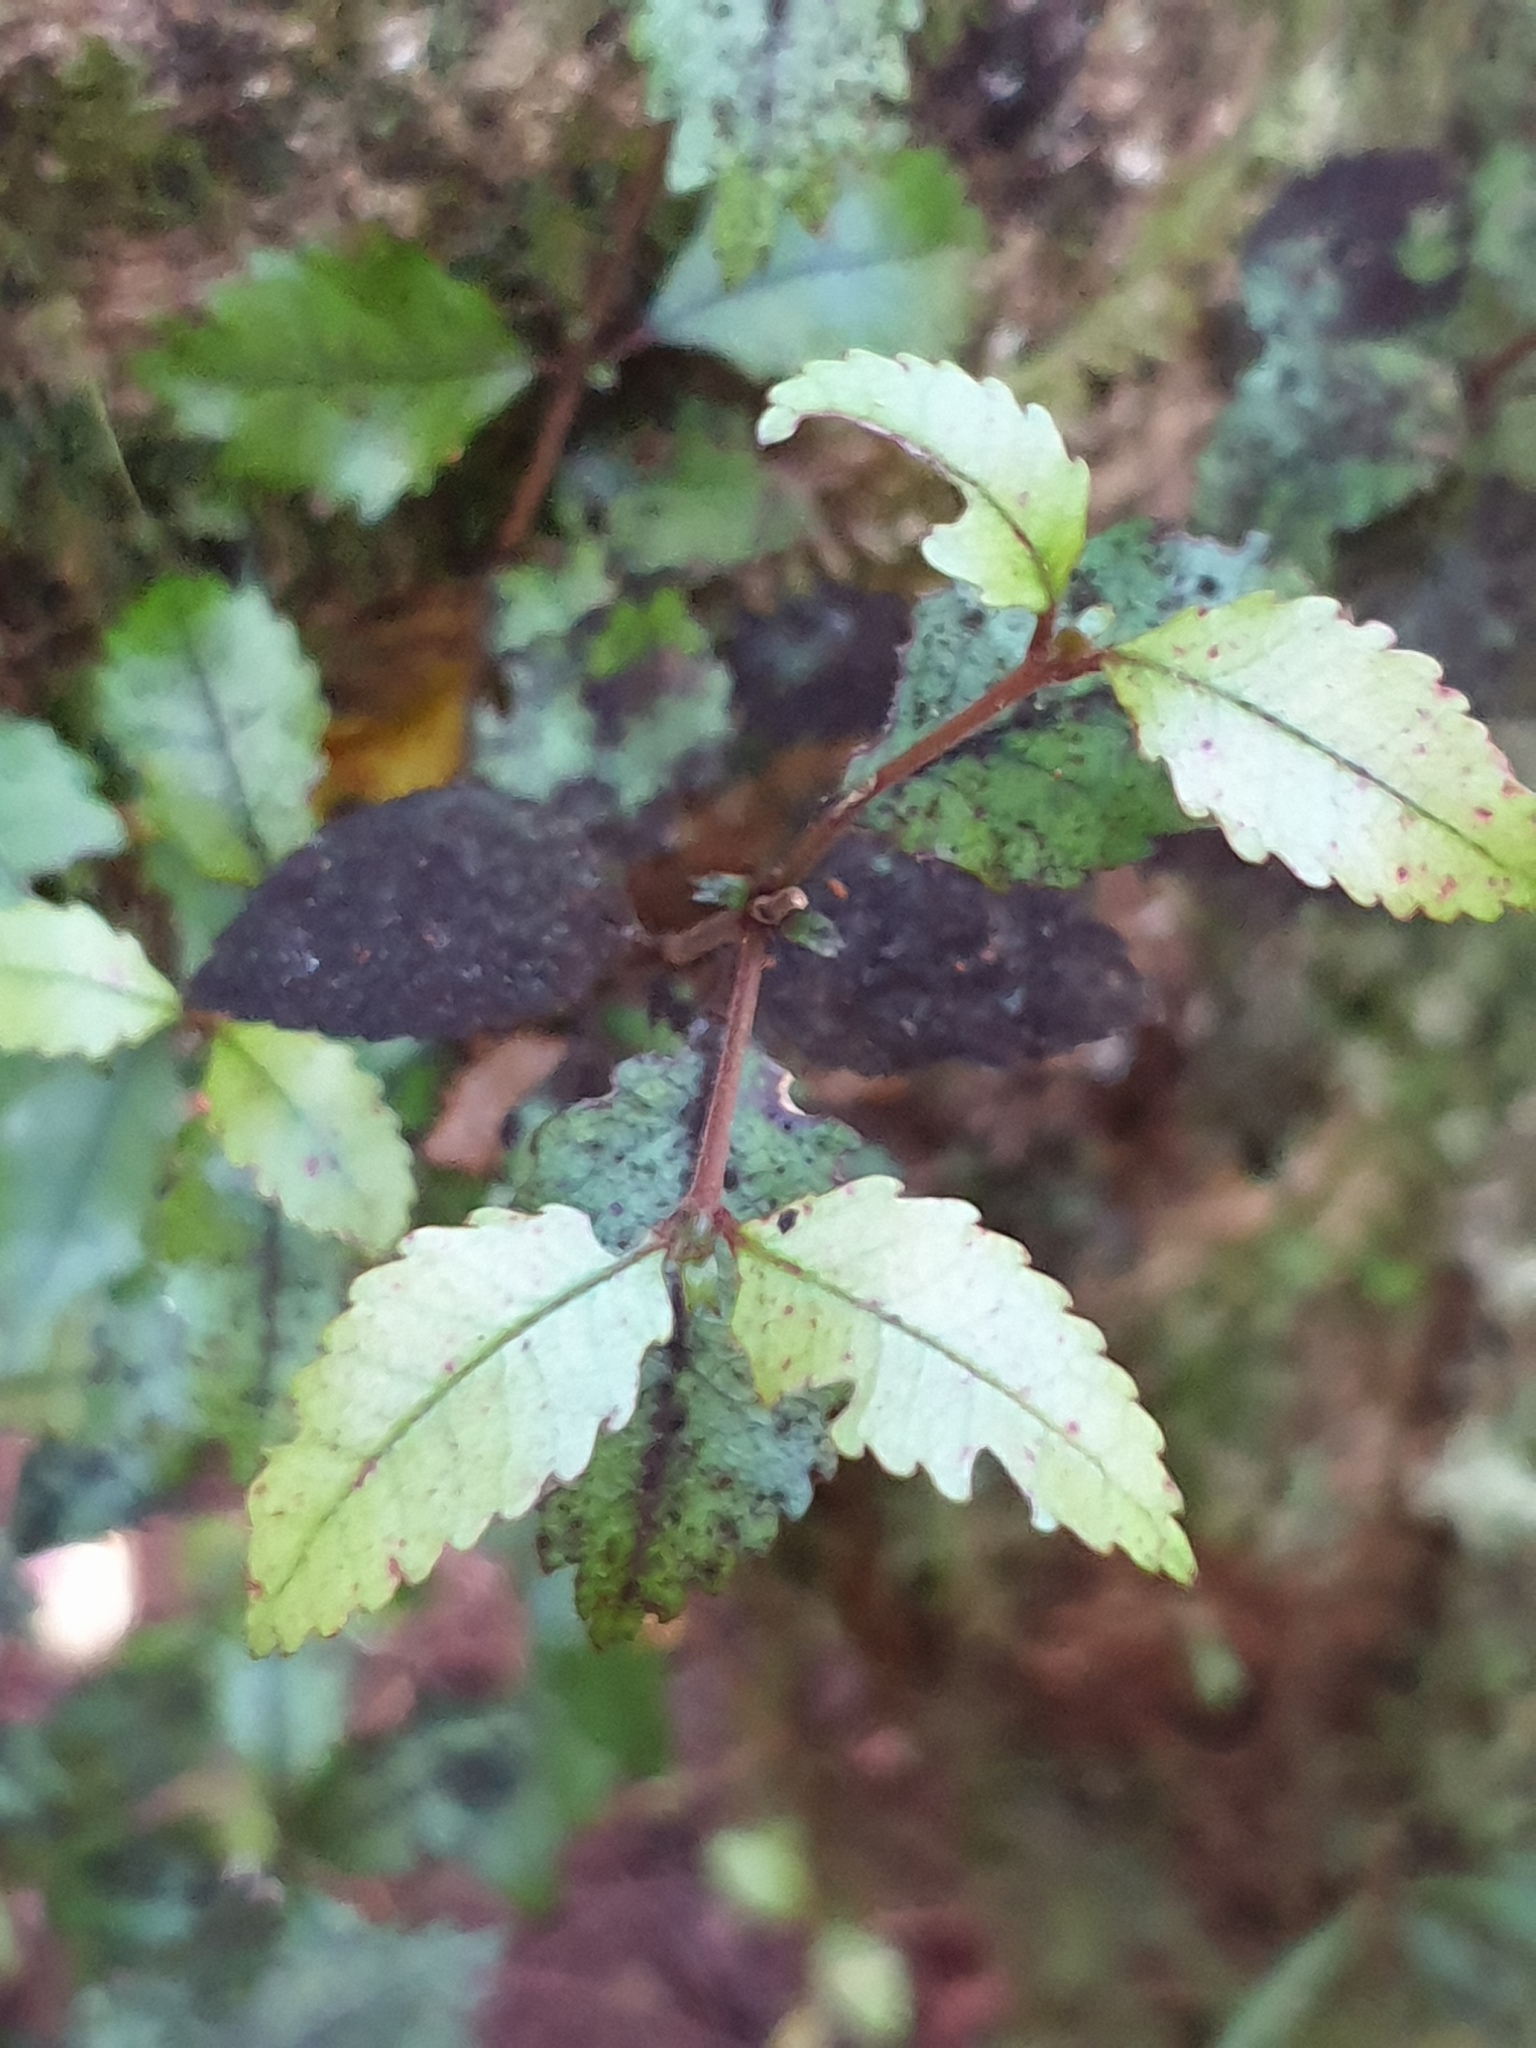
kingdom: Plantae
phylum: Tracheophyta
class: Magnoliopsida
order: Oxalidales
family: Cunoniaceae
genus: Pterophylla
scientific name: Pterophylla racemosa
